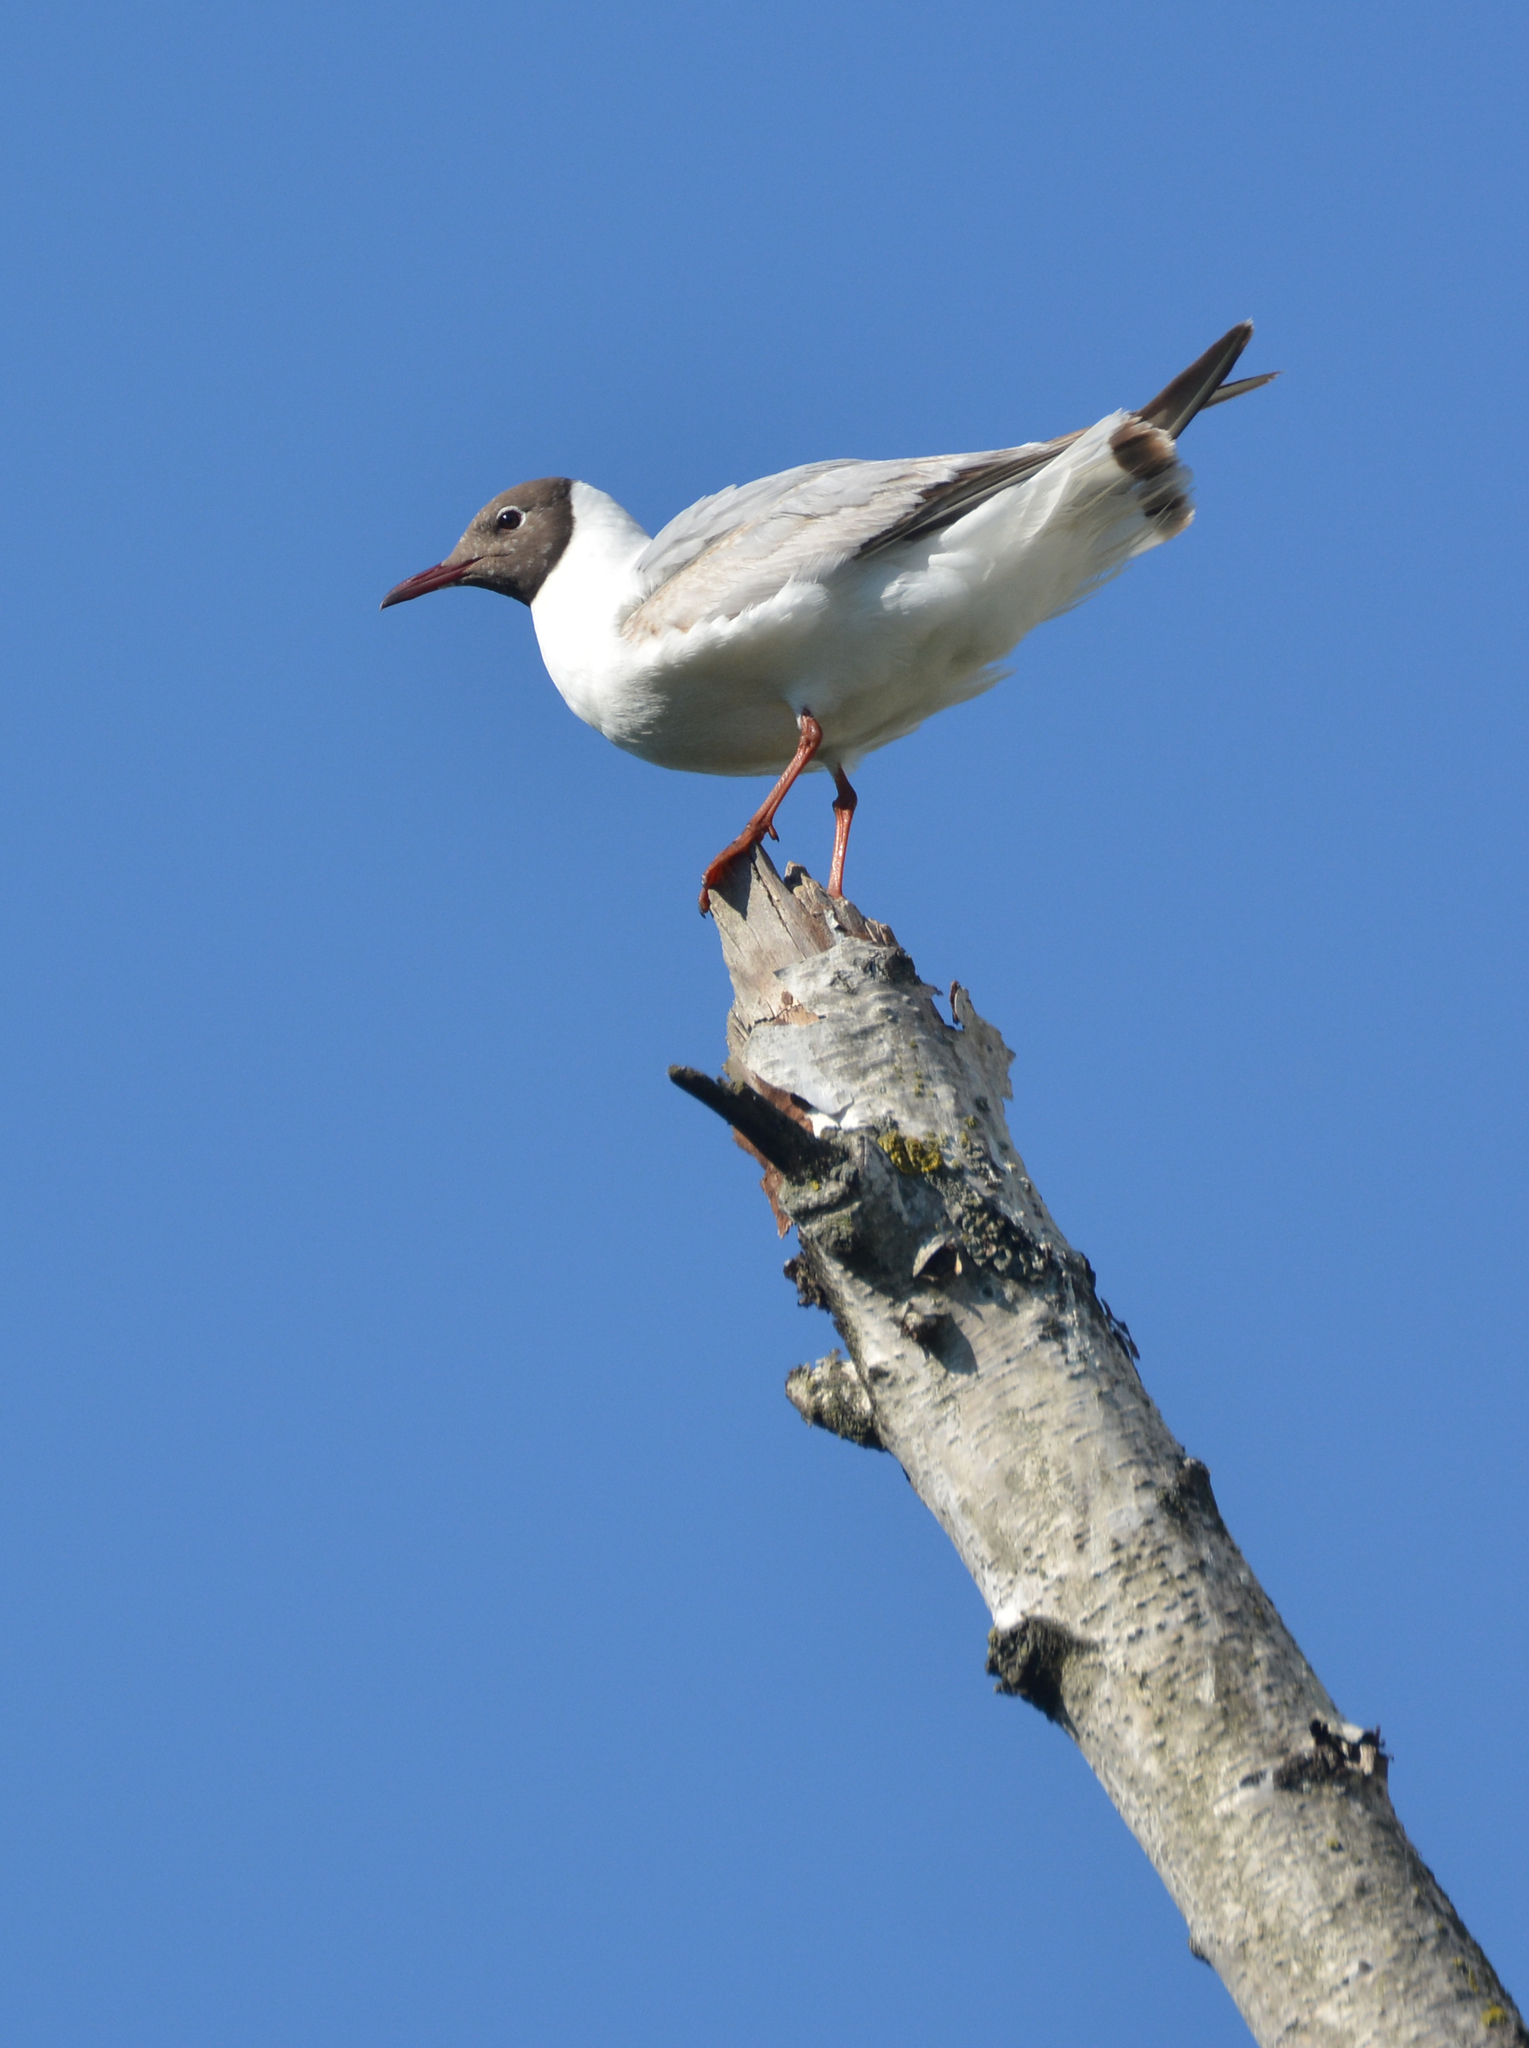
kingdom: Animalia
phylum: Chordata
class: Aves
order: Charadriiformes
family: Laridae
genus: Chroicocephalus
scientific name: Chroicocephalus ridibundus
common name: Black-headed gull
